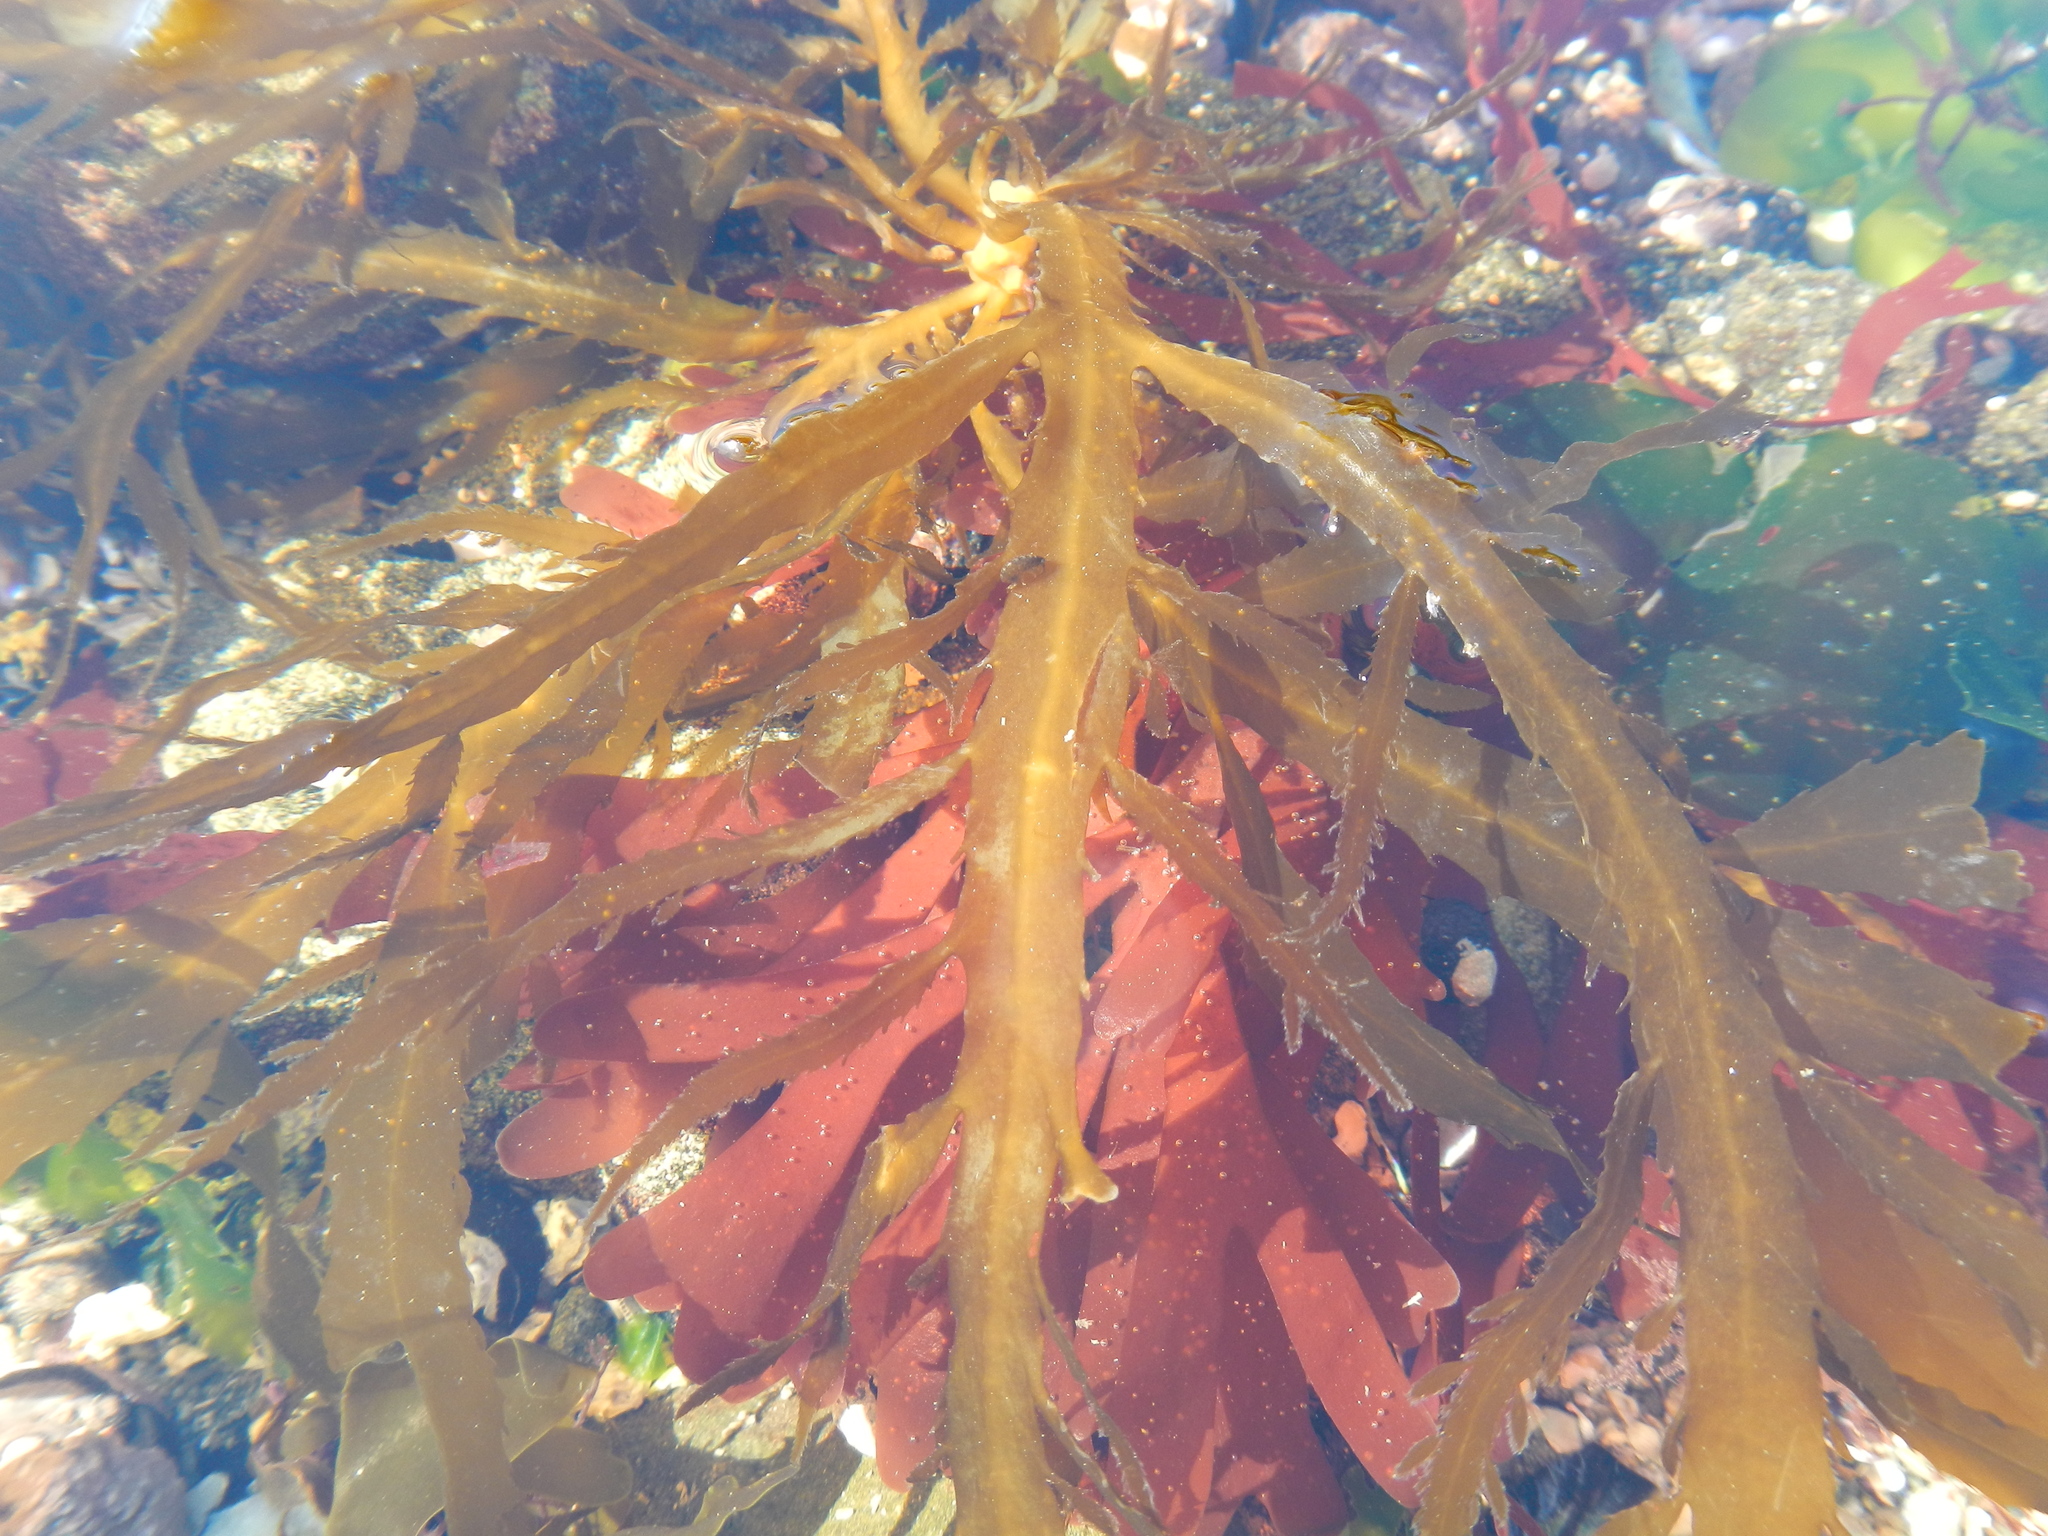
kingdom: Chromista
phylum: Ochrophyta
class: Phaeophyceae
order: Desmarestiales
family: Desmarestiaceae
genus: Desmarestia
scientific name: Desmarestia ligulata
